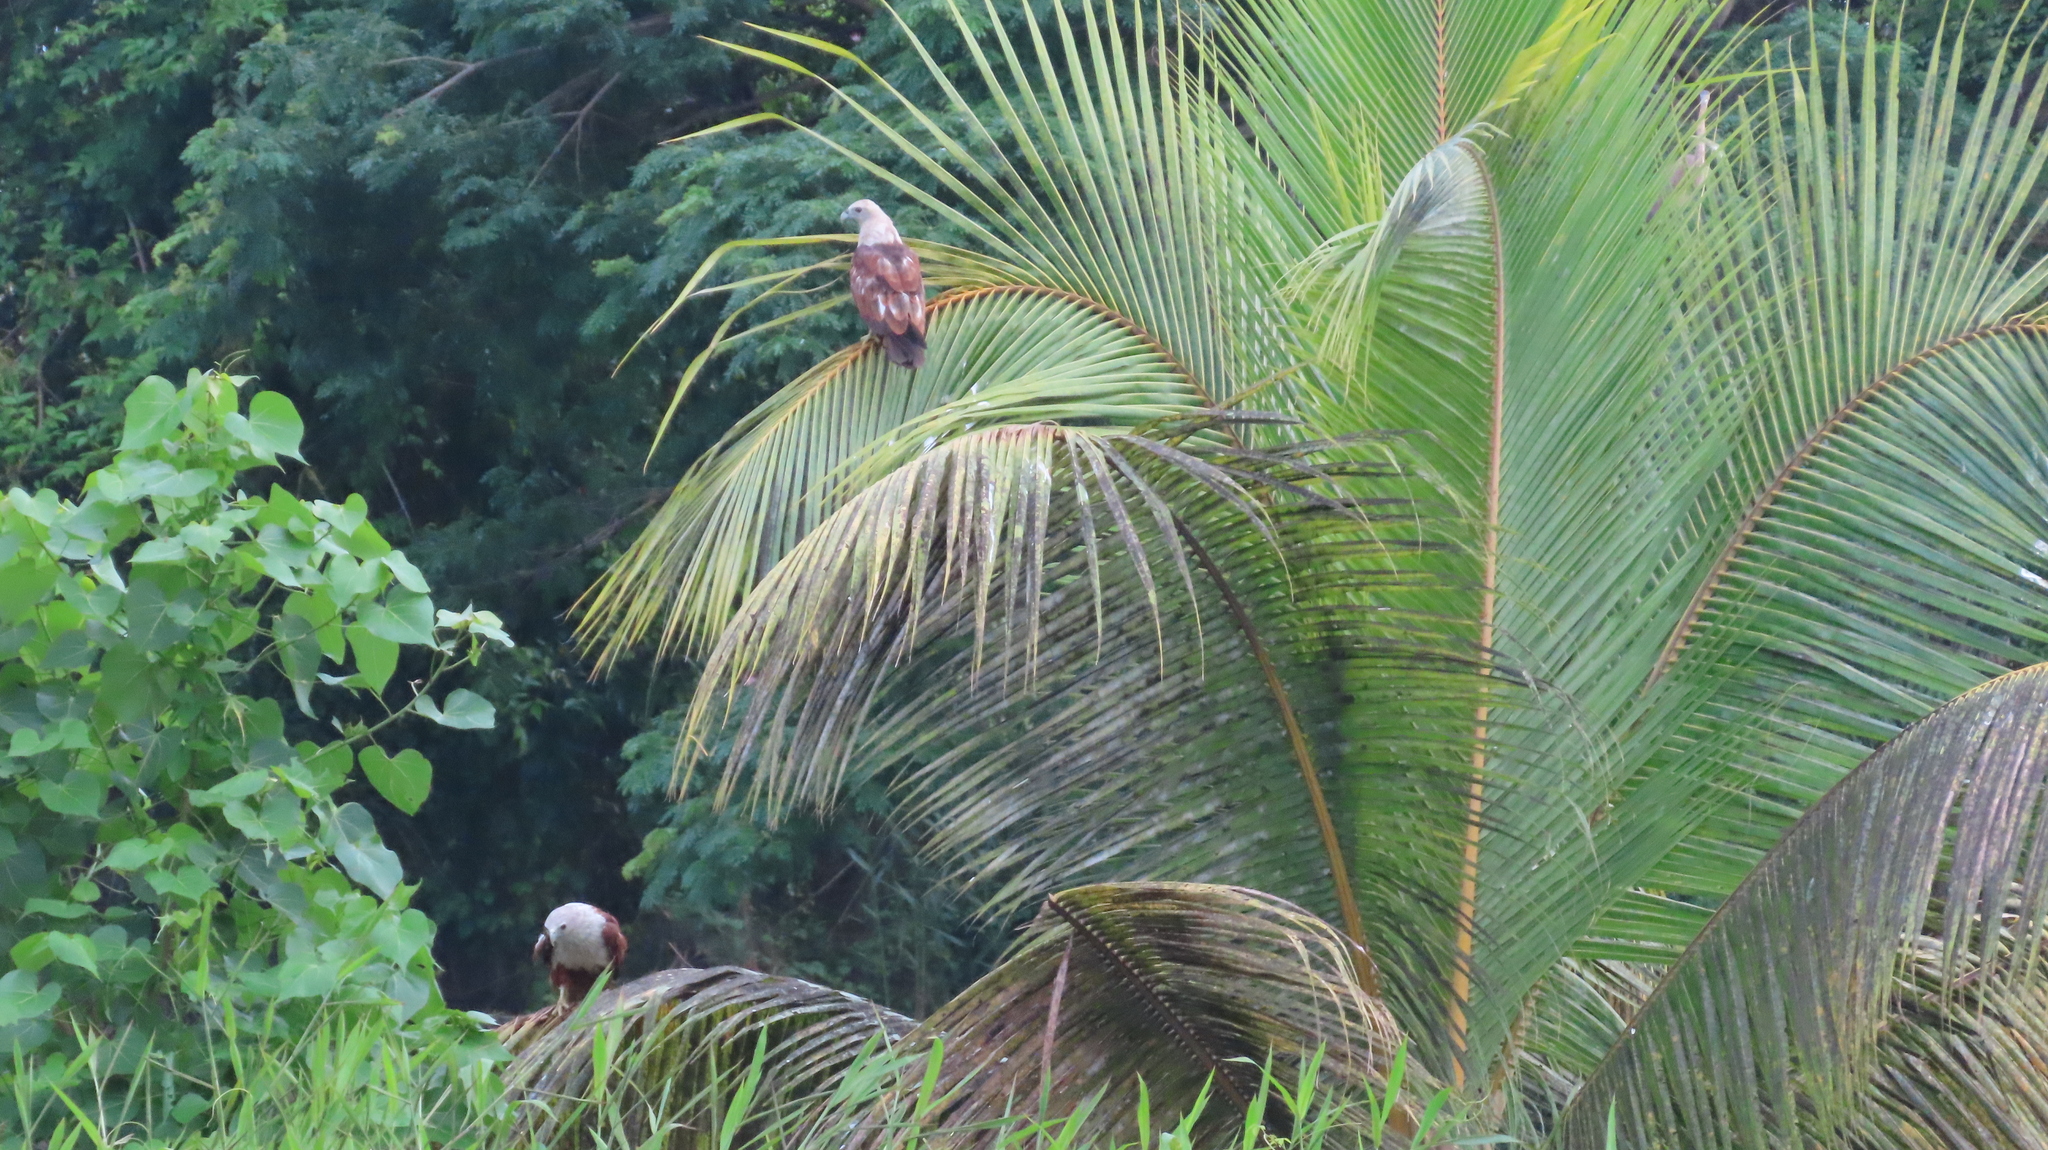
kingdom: Animalia
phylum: Chordata
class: Aves
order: Accipitriformes
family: Accipitridae
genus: Haliastur
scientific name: Haliastur indus
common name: Brahminy kite
